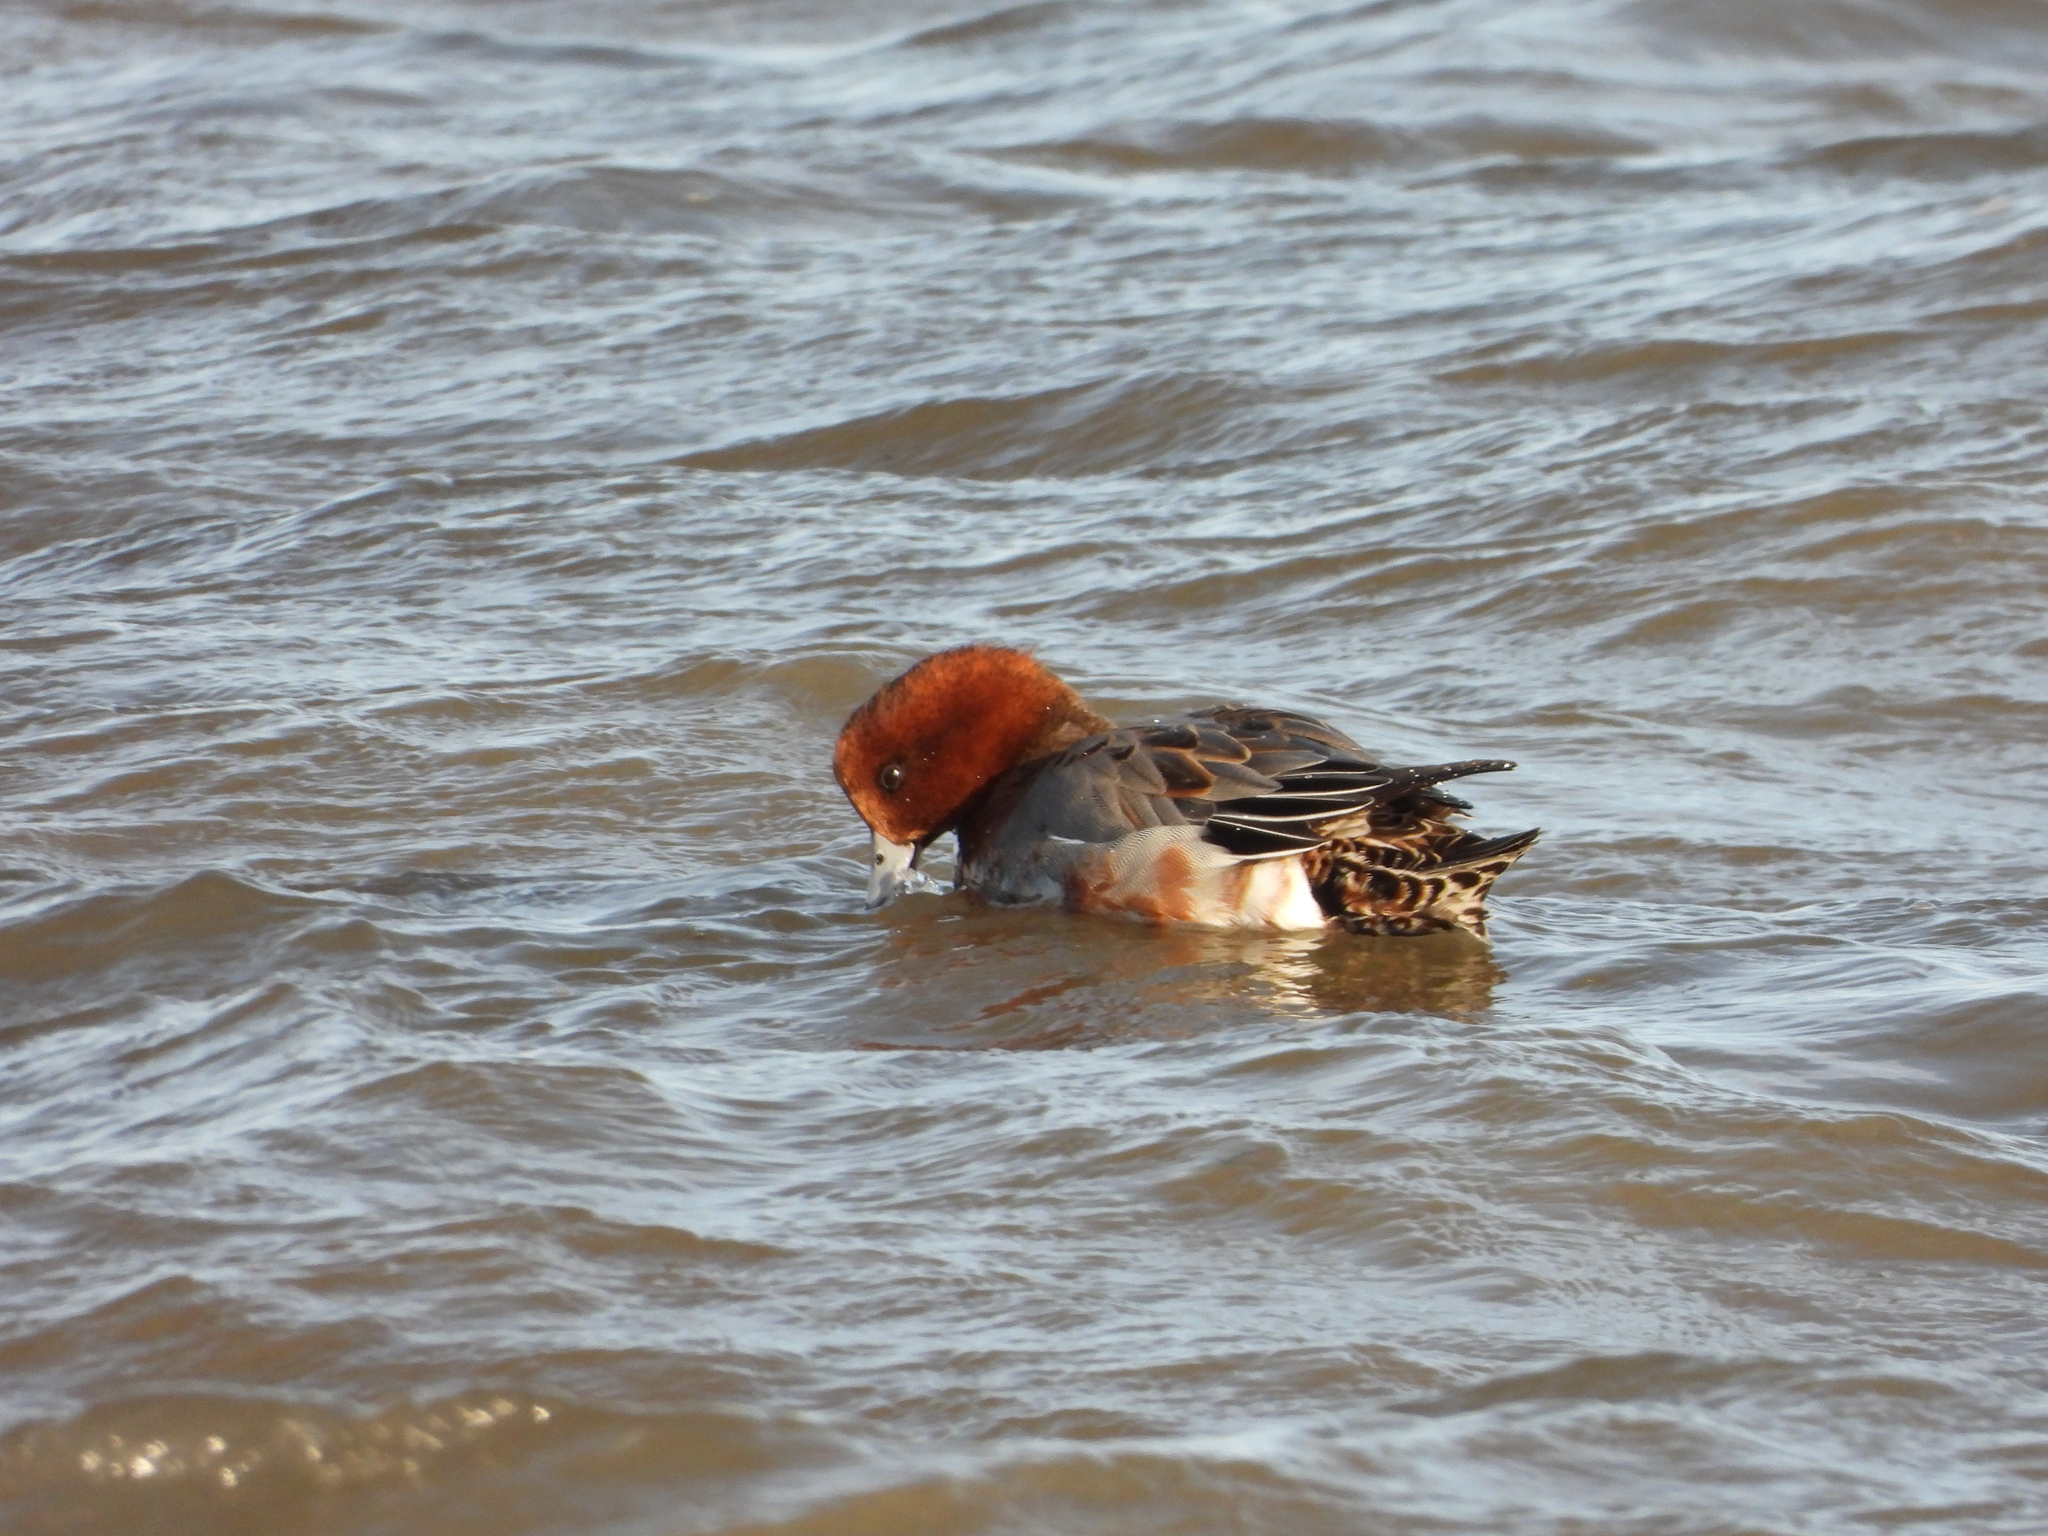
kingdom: Animalia
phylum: Chordata
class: Aves
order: Anseriformes
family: Anatidae
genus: Mareca
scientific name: Mareca penelope
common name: Eurasian wigeon
